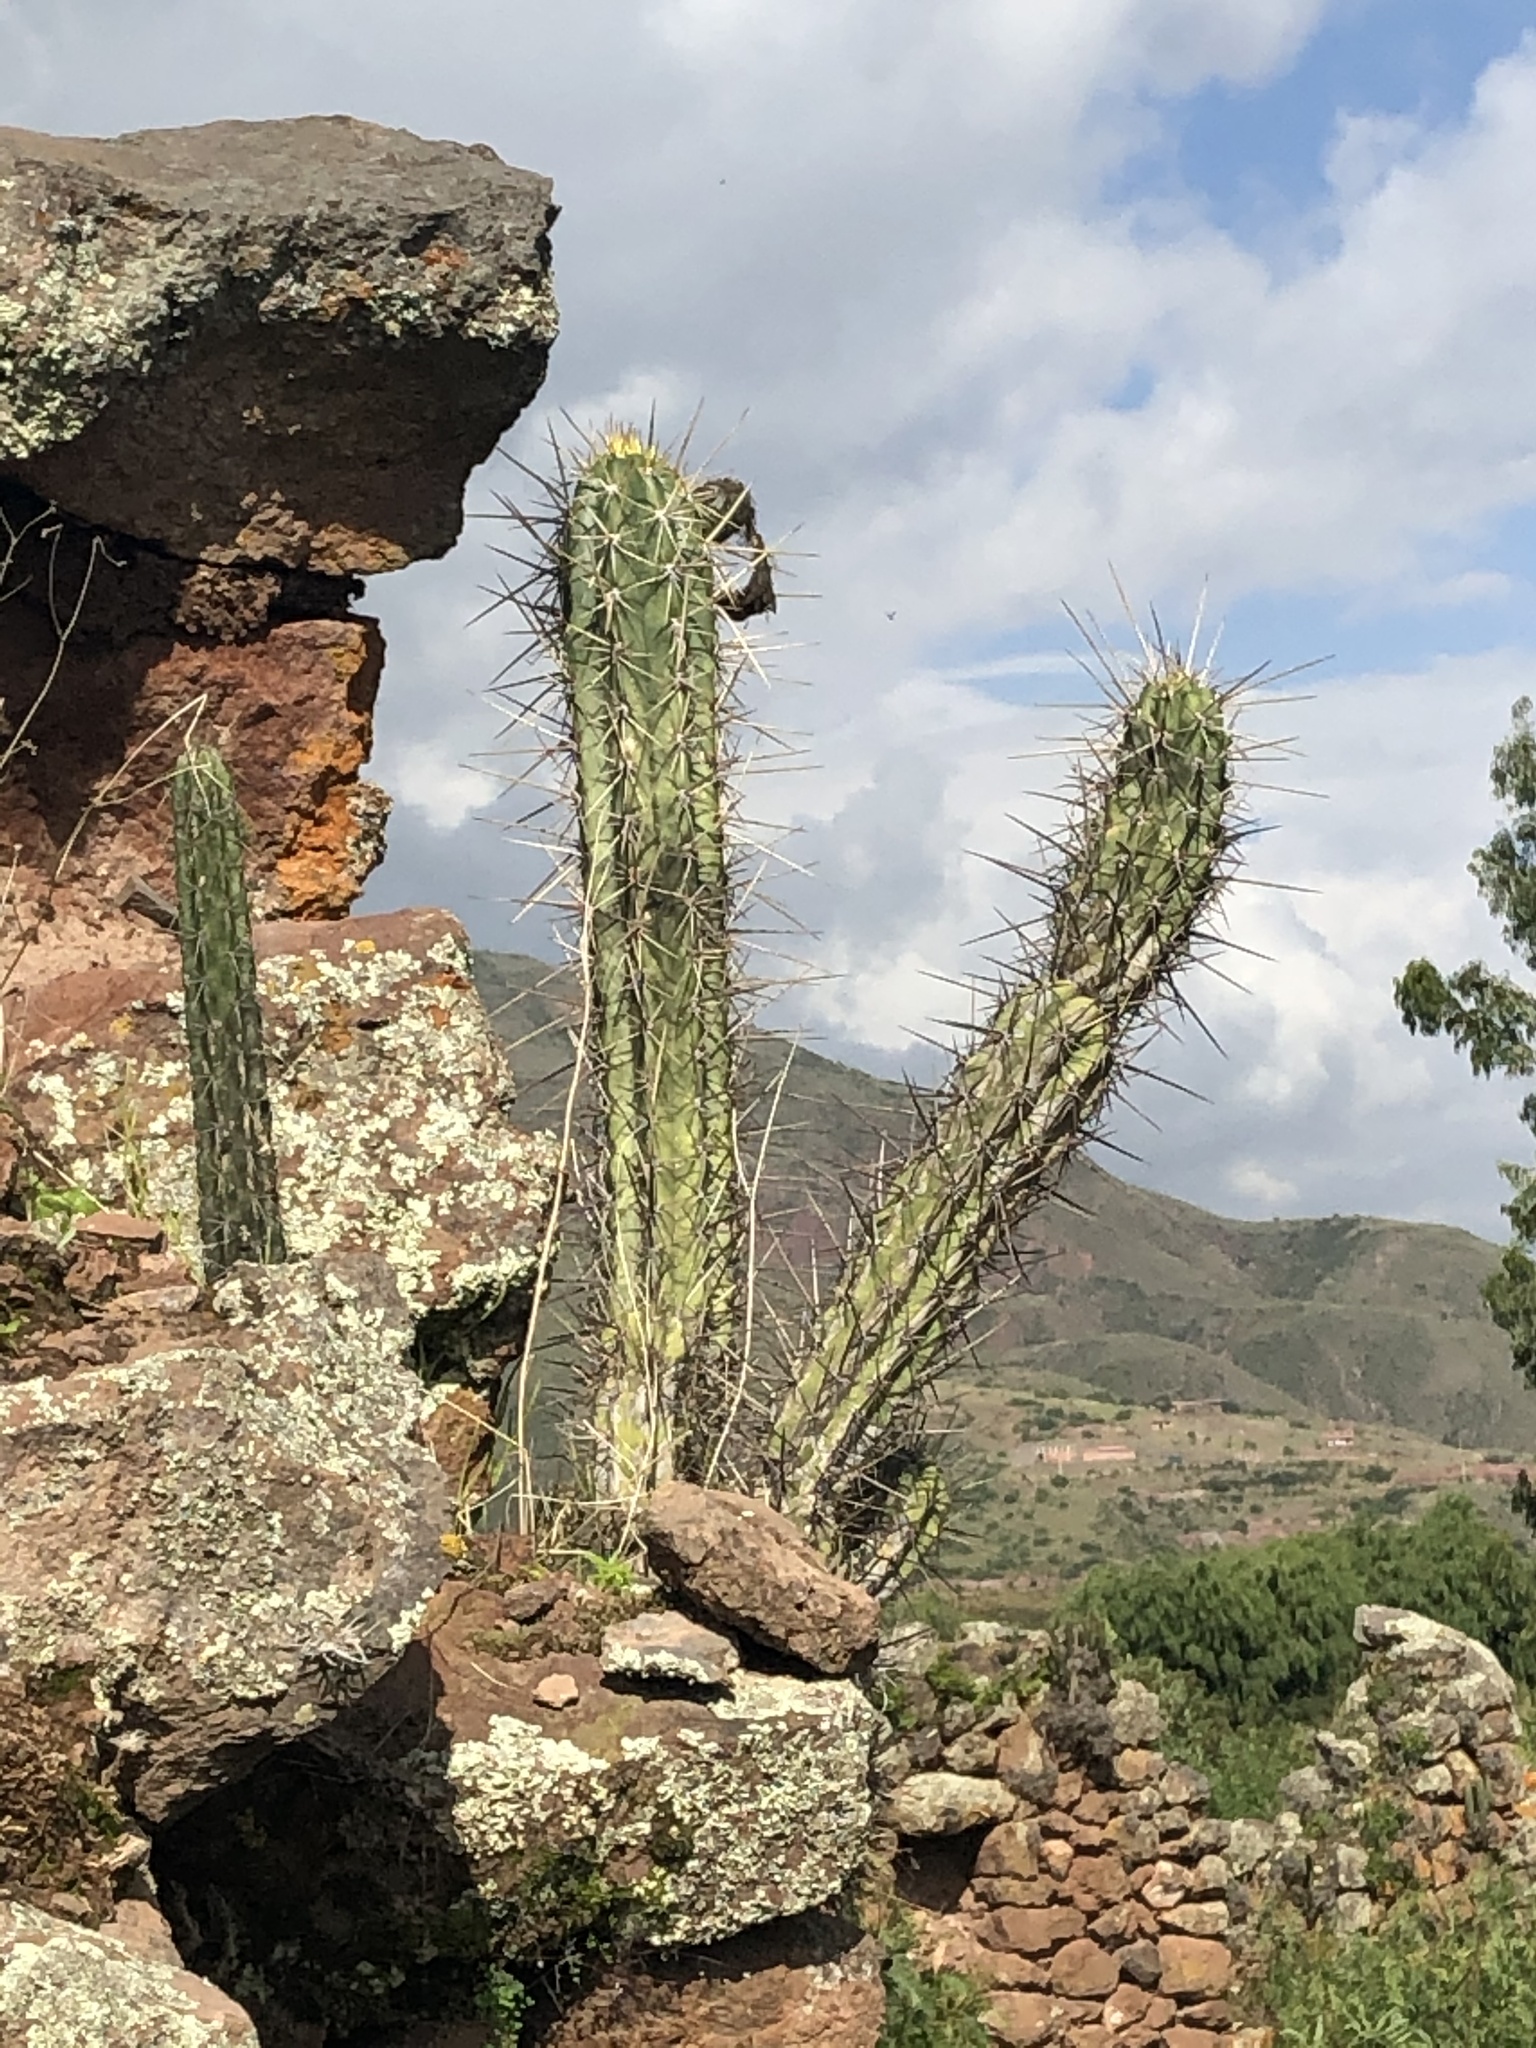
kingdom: Plantae
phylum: Tracheophyta
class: Magnoliopsida
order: Caryophyllales
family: Cactaceae
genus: Trichocereus
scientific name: Trichocereus cuzcoensis
